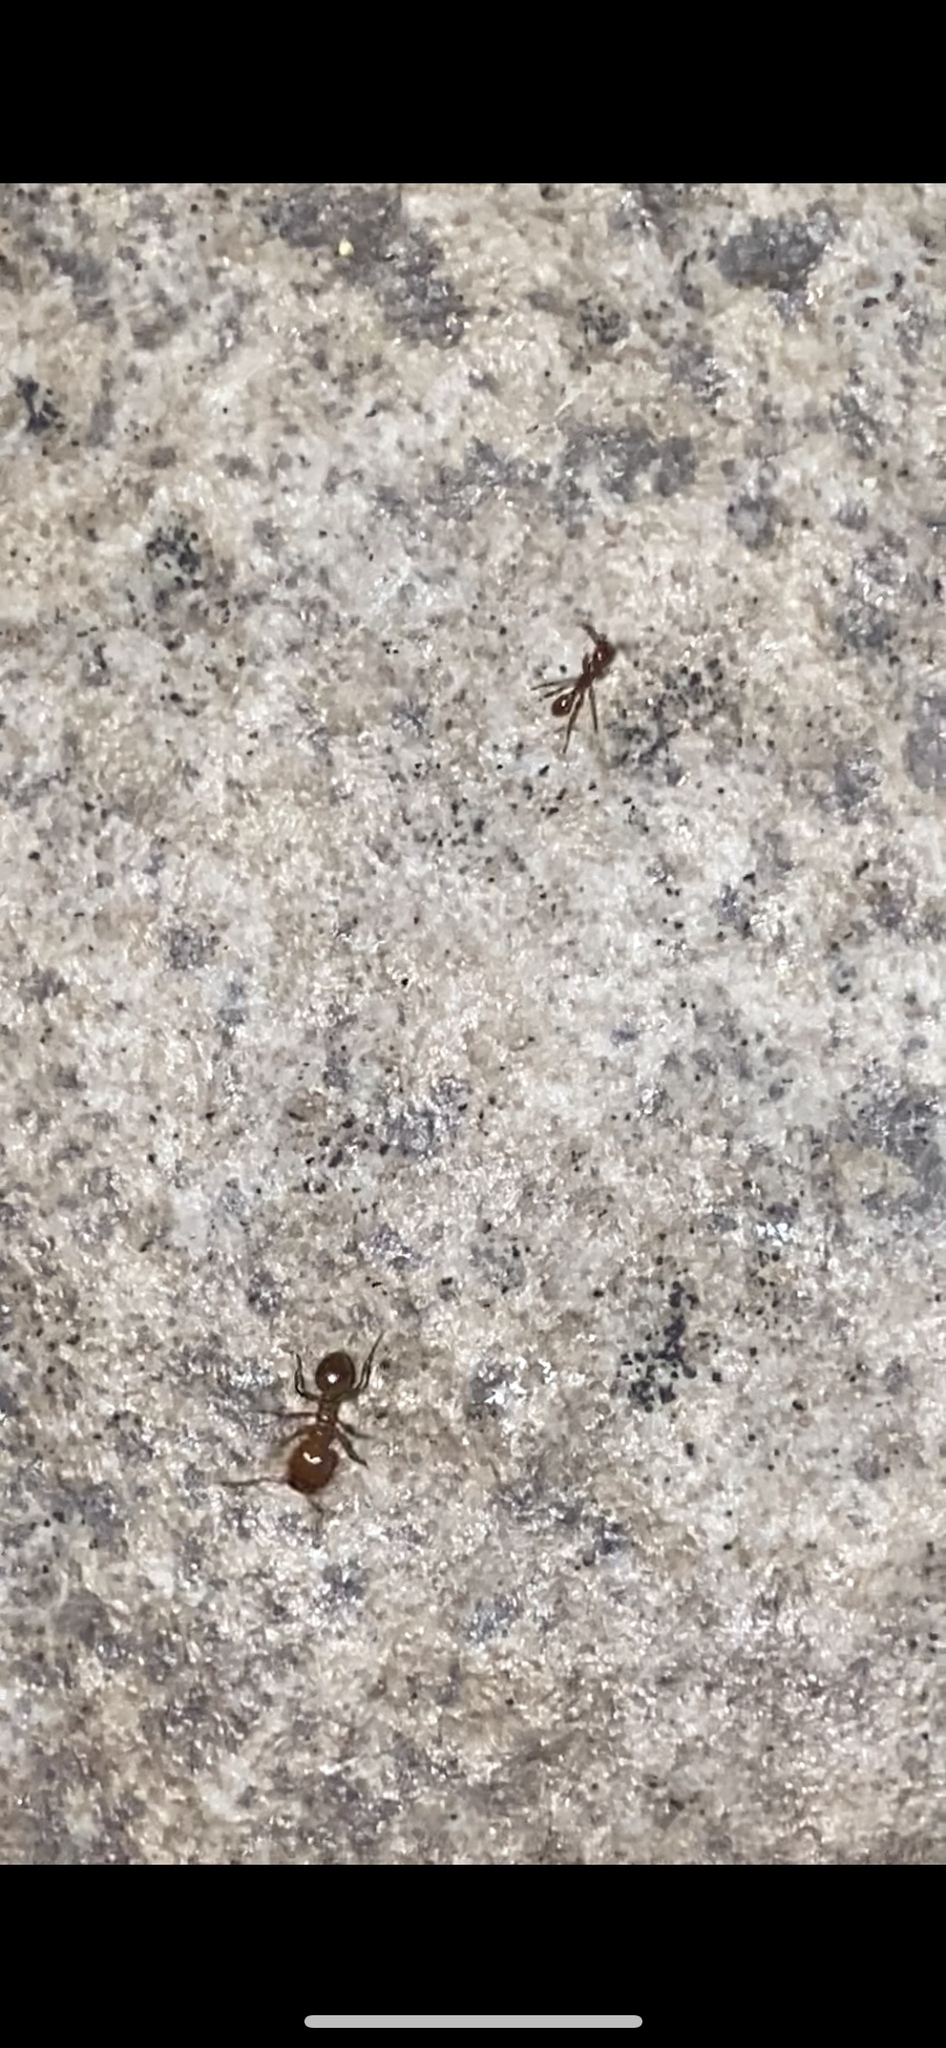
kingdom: Animalia
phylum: Arthropoda
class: Insecta
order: Hymenoptera
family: Formicidae
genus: Pheidole
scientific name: Pheidole dentata
